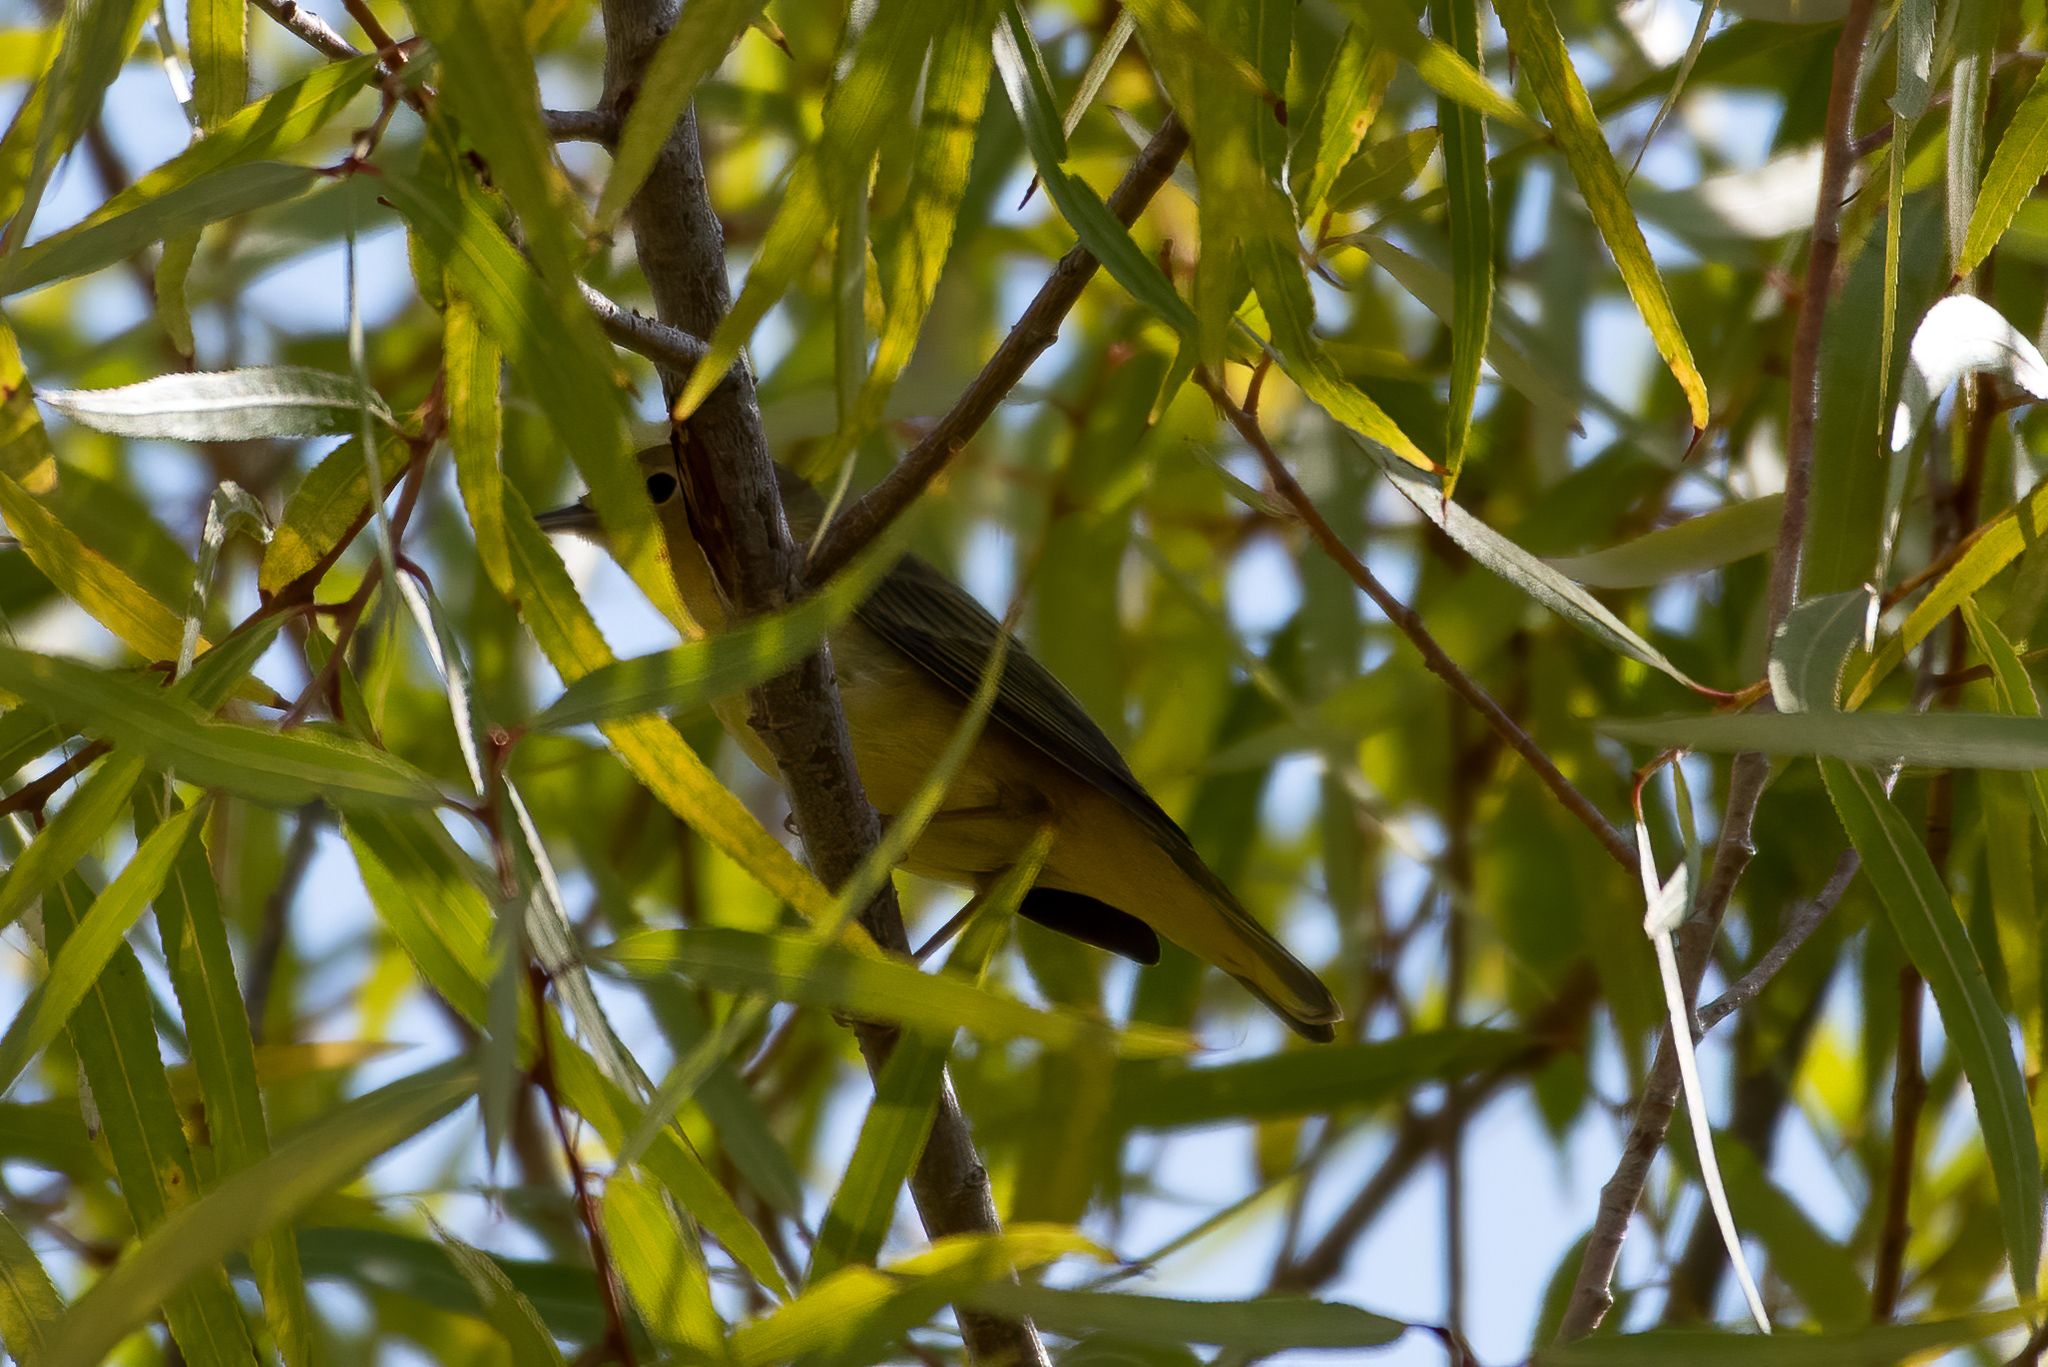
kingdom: Animalia
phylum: Chordata
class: Aves
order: Passeriformes
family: Parulidae
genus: Setophaga
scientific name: Setophaga petechia
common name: Yellow warbler
